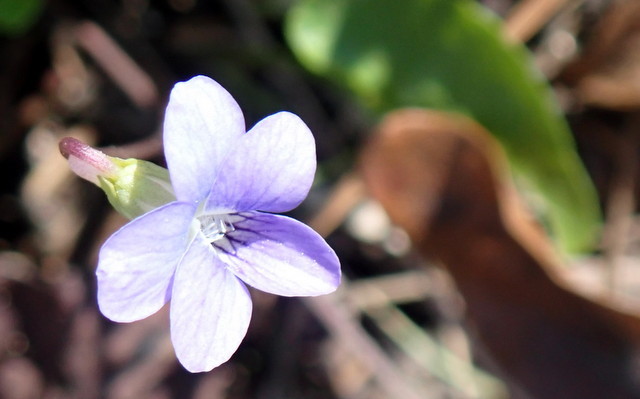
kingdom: Plantae
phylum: Tracheophyta
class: Magnoliopsida
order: Malpighiales
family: Violaceae
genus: Viola
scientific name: Viola septemloba
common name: Southern coast violet
